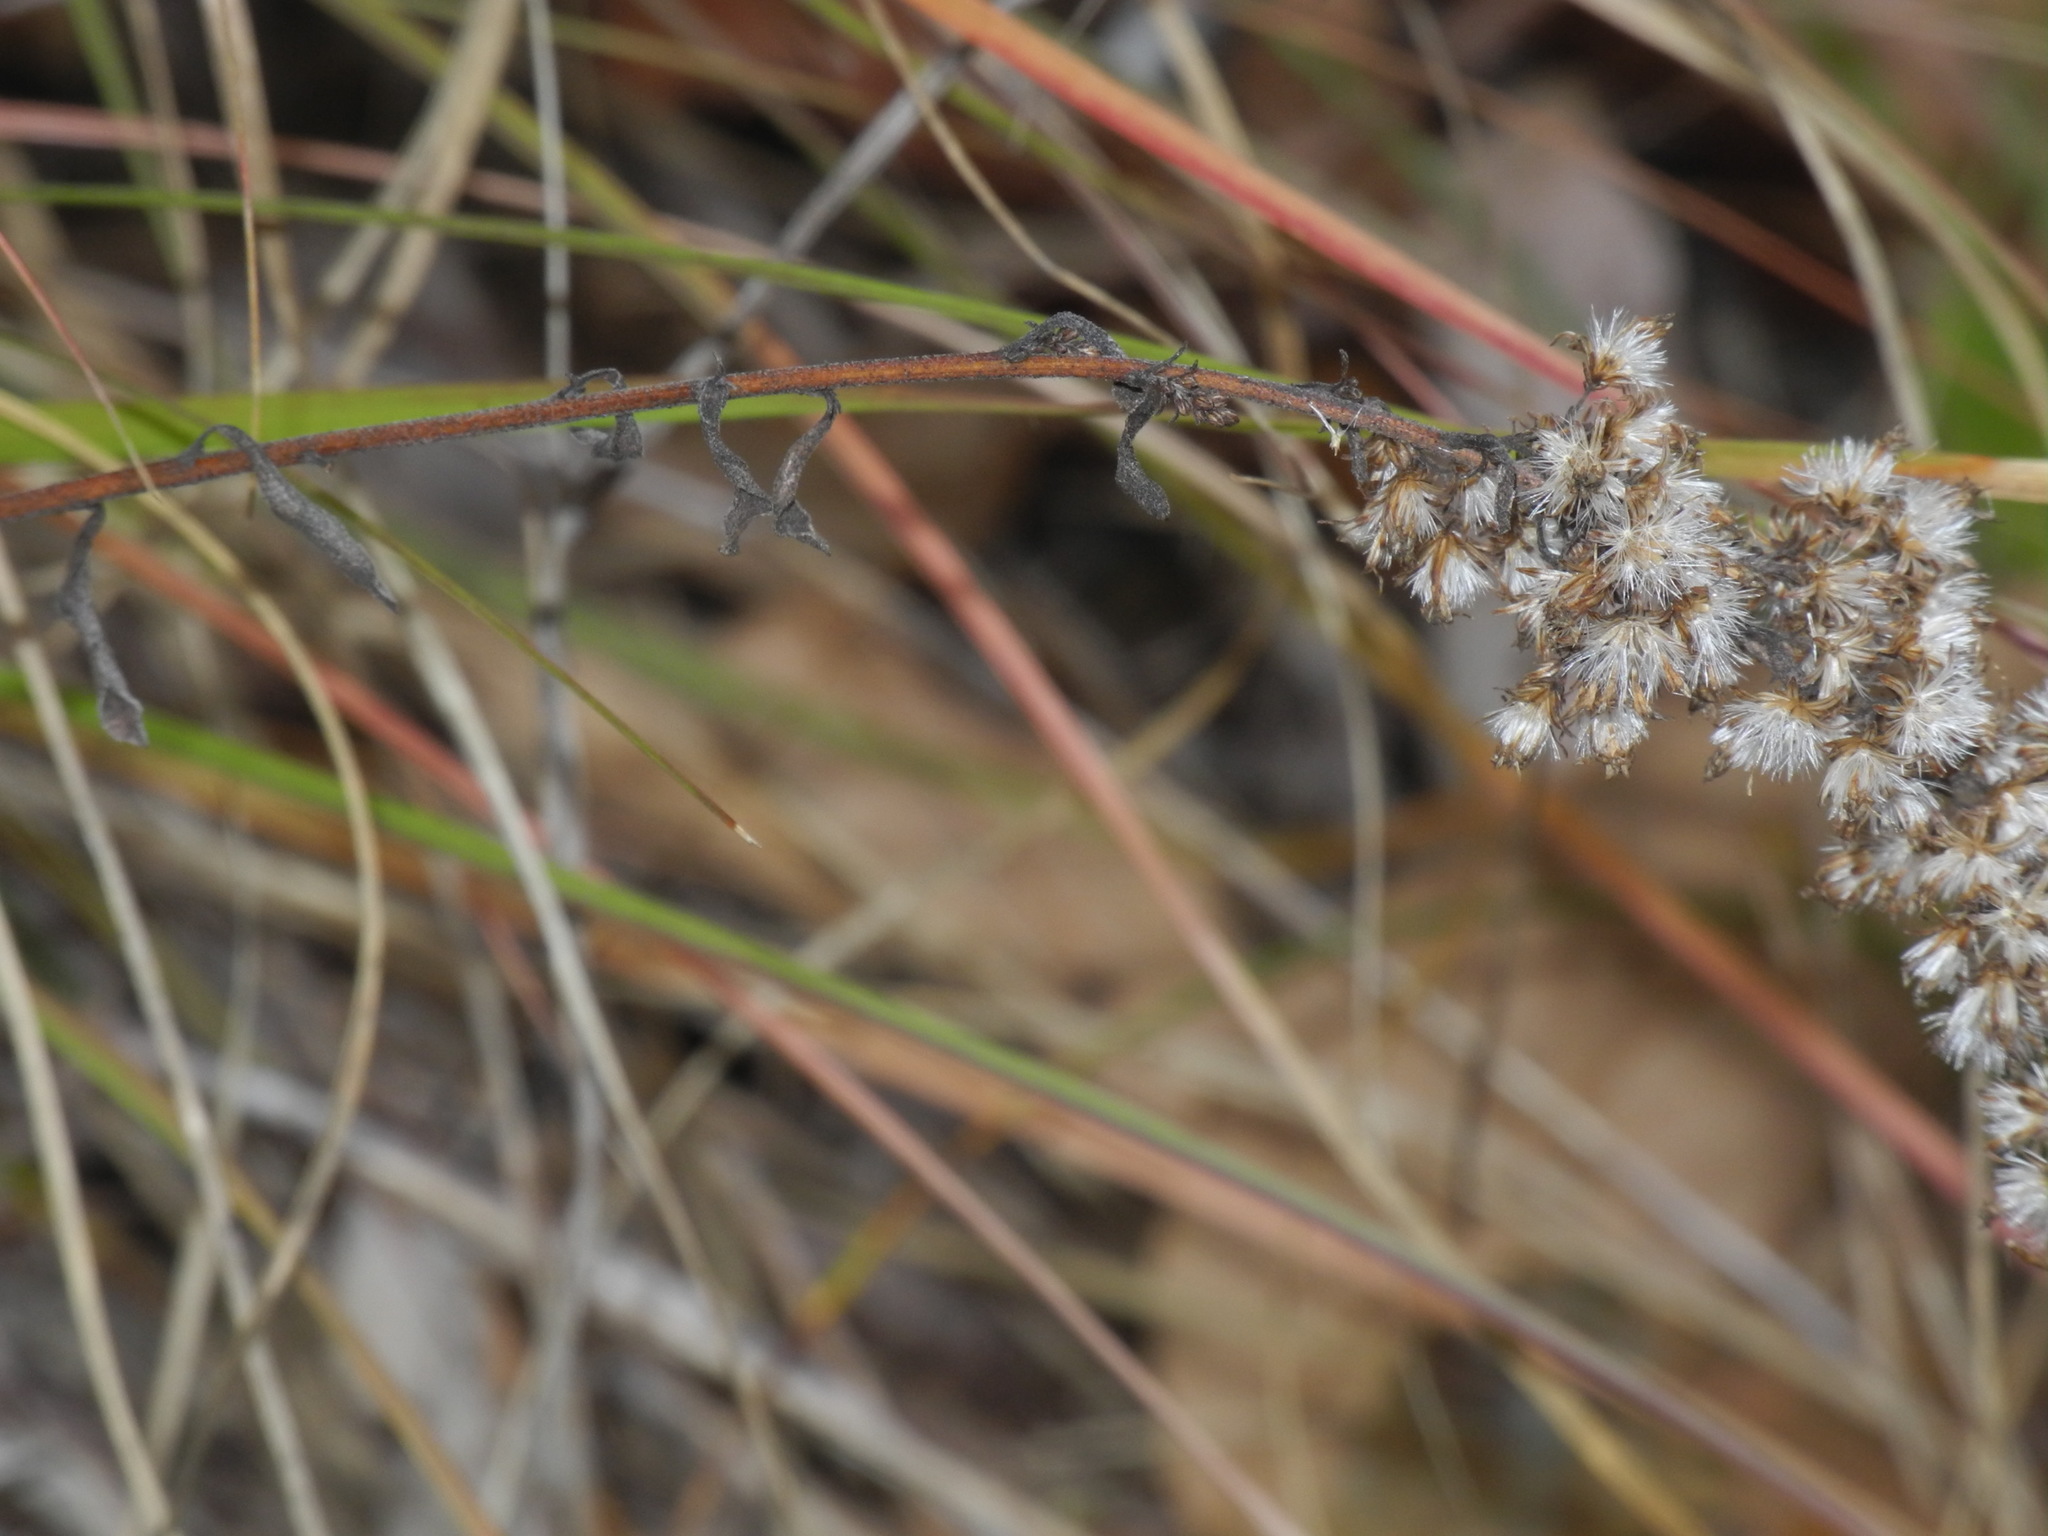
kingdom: Plantae
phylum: Tracheophyta
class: Magnoliopsida
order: Asterales
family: Asteraceae
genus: Solidago
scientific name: Solidago
